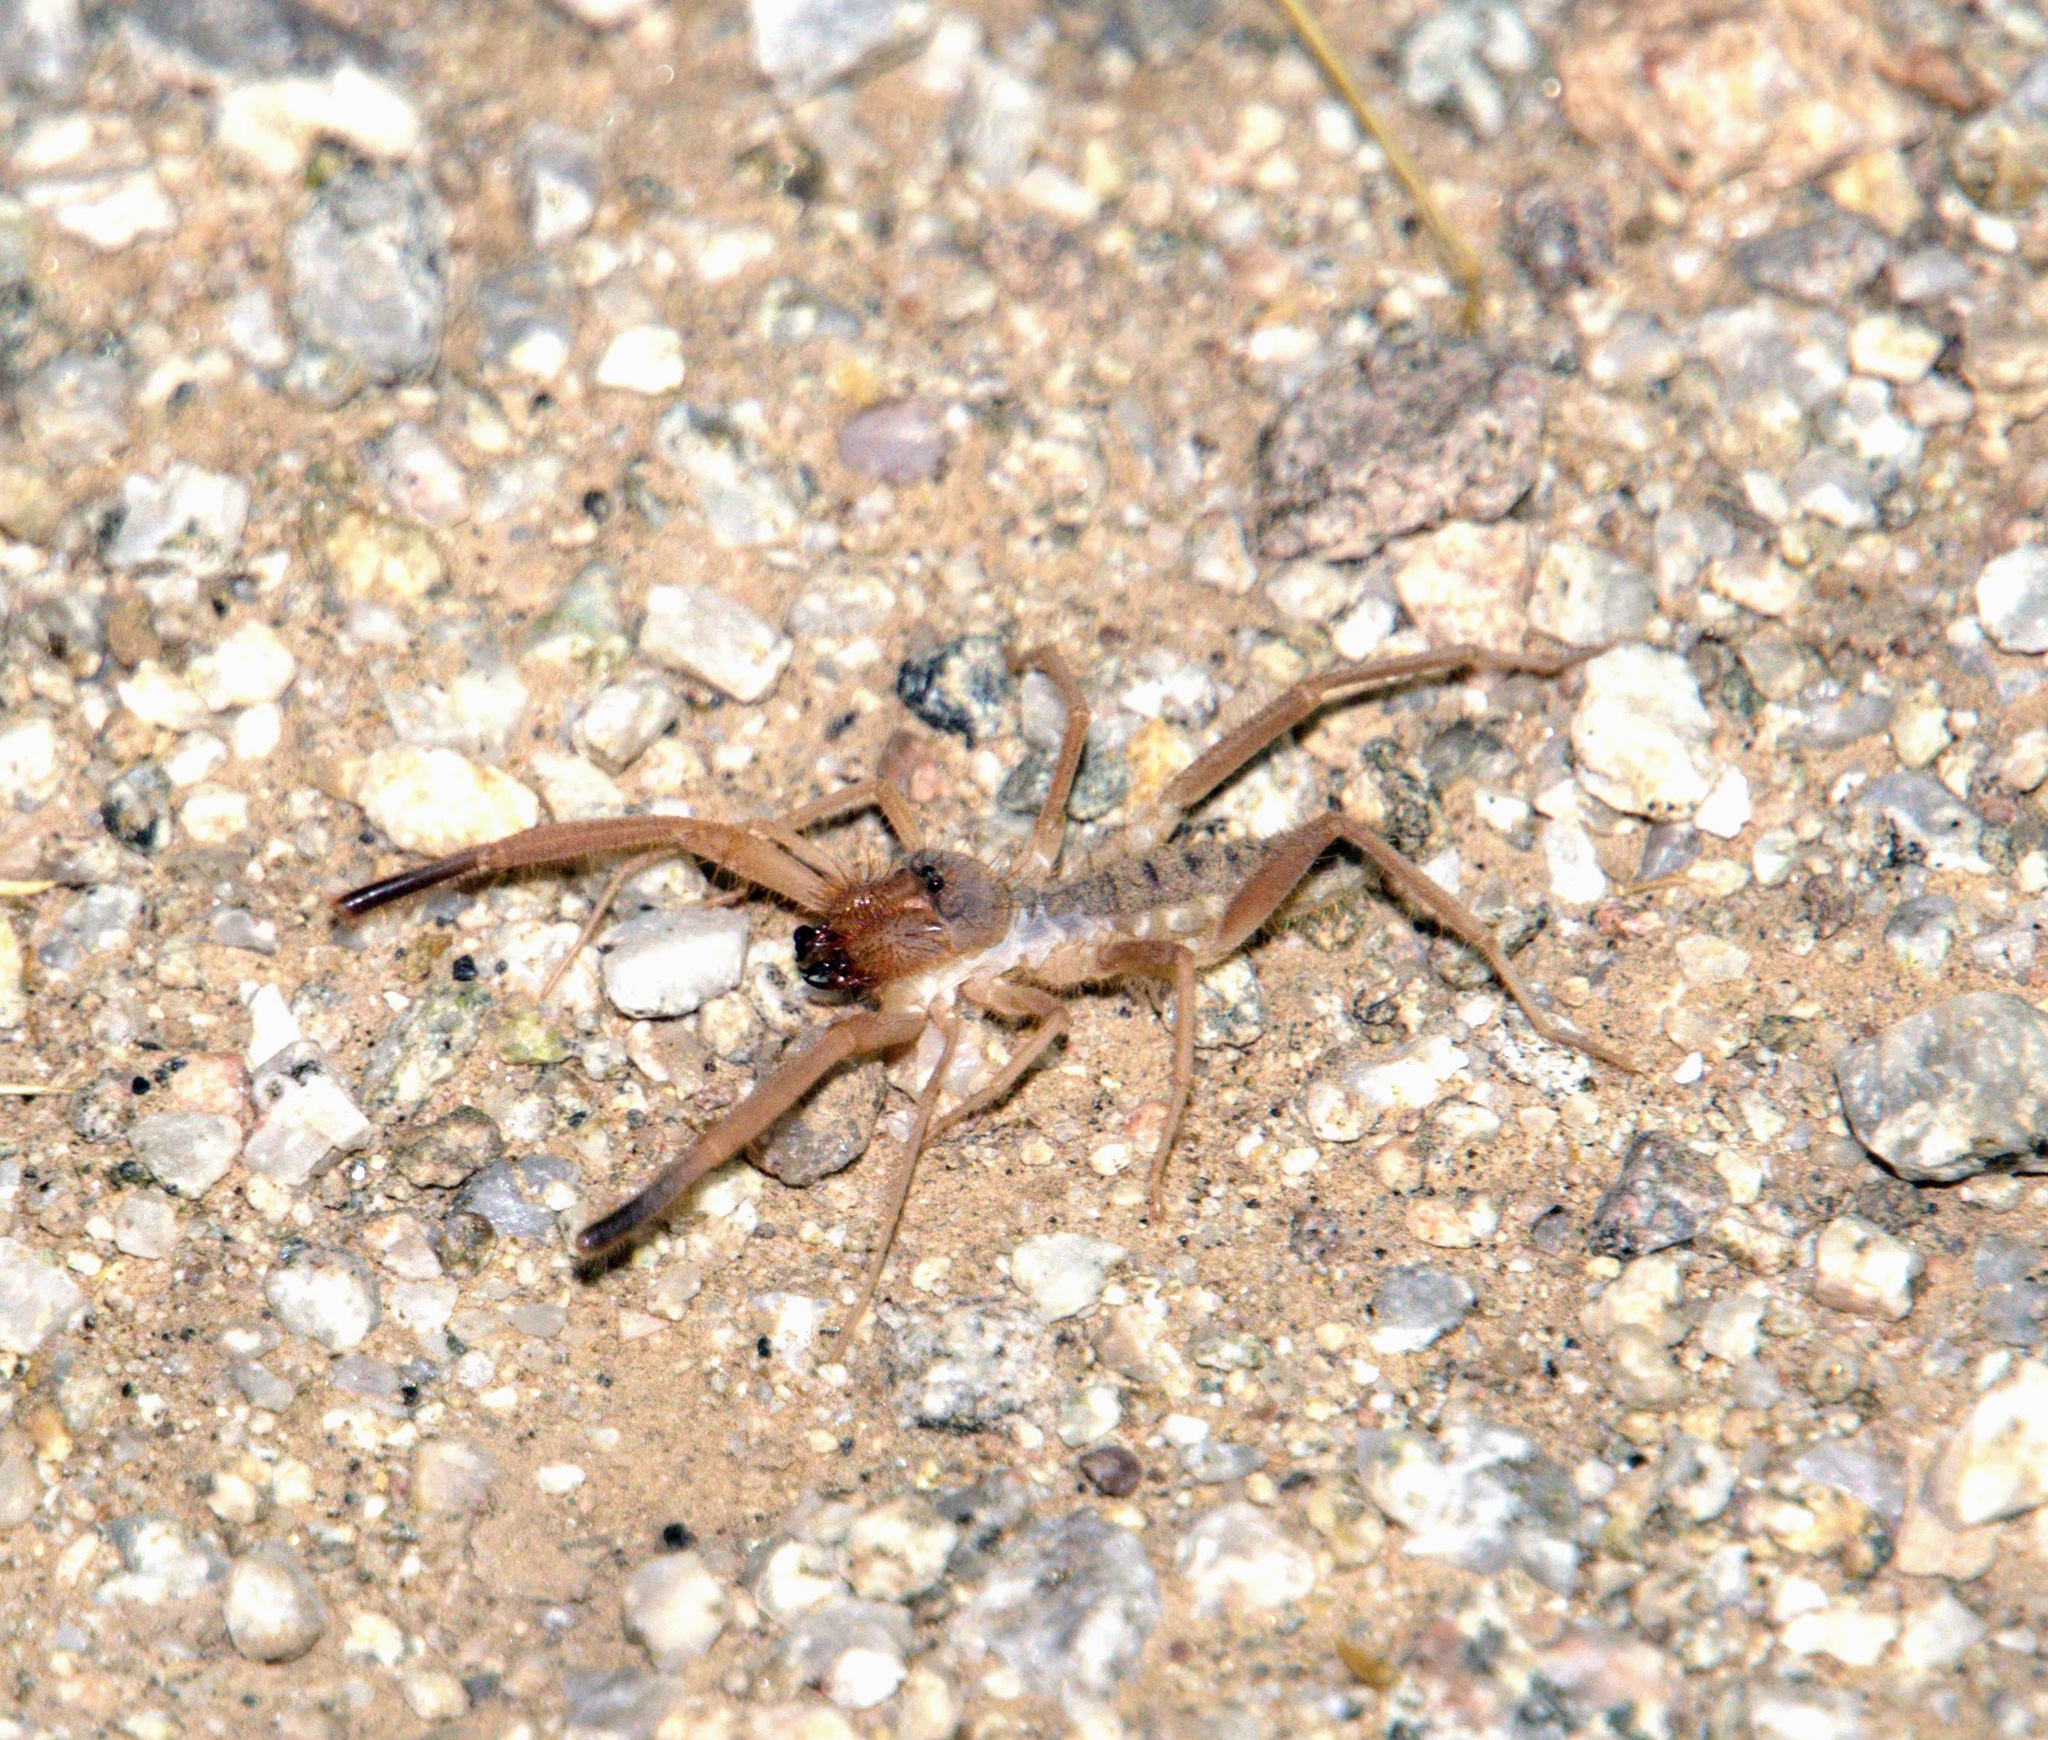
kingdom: Animalia
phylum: Arthropoda
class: Arachnida
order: Solifugae
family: Eremobatidae
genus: Eremothera
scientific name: Eremothera
